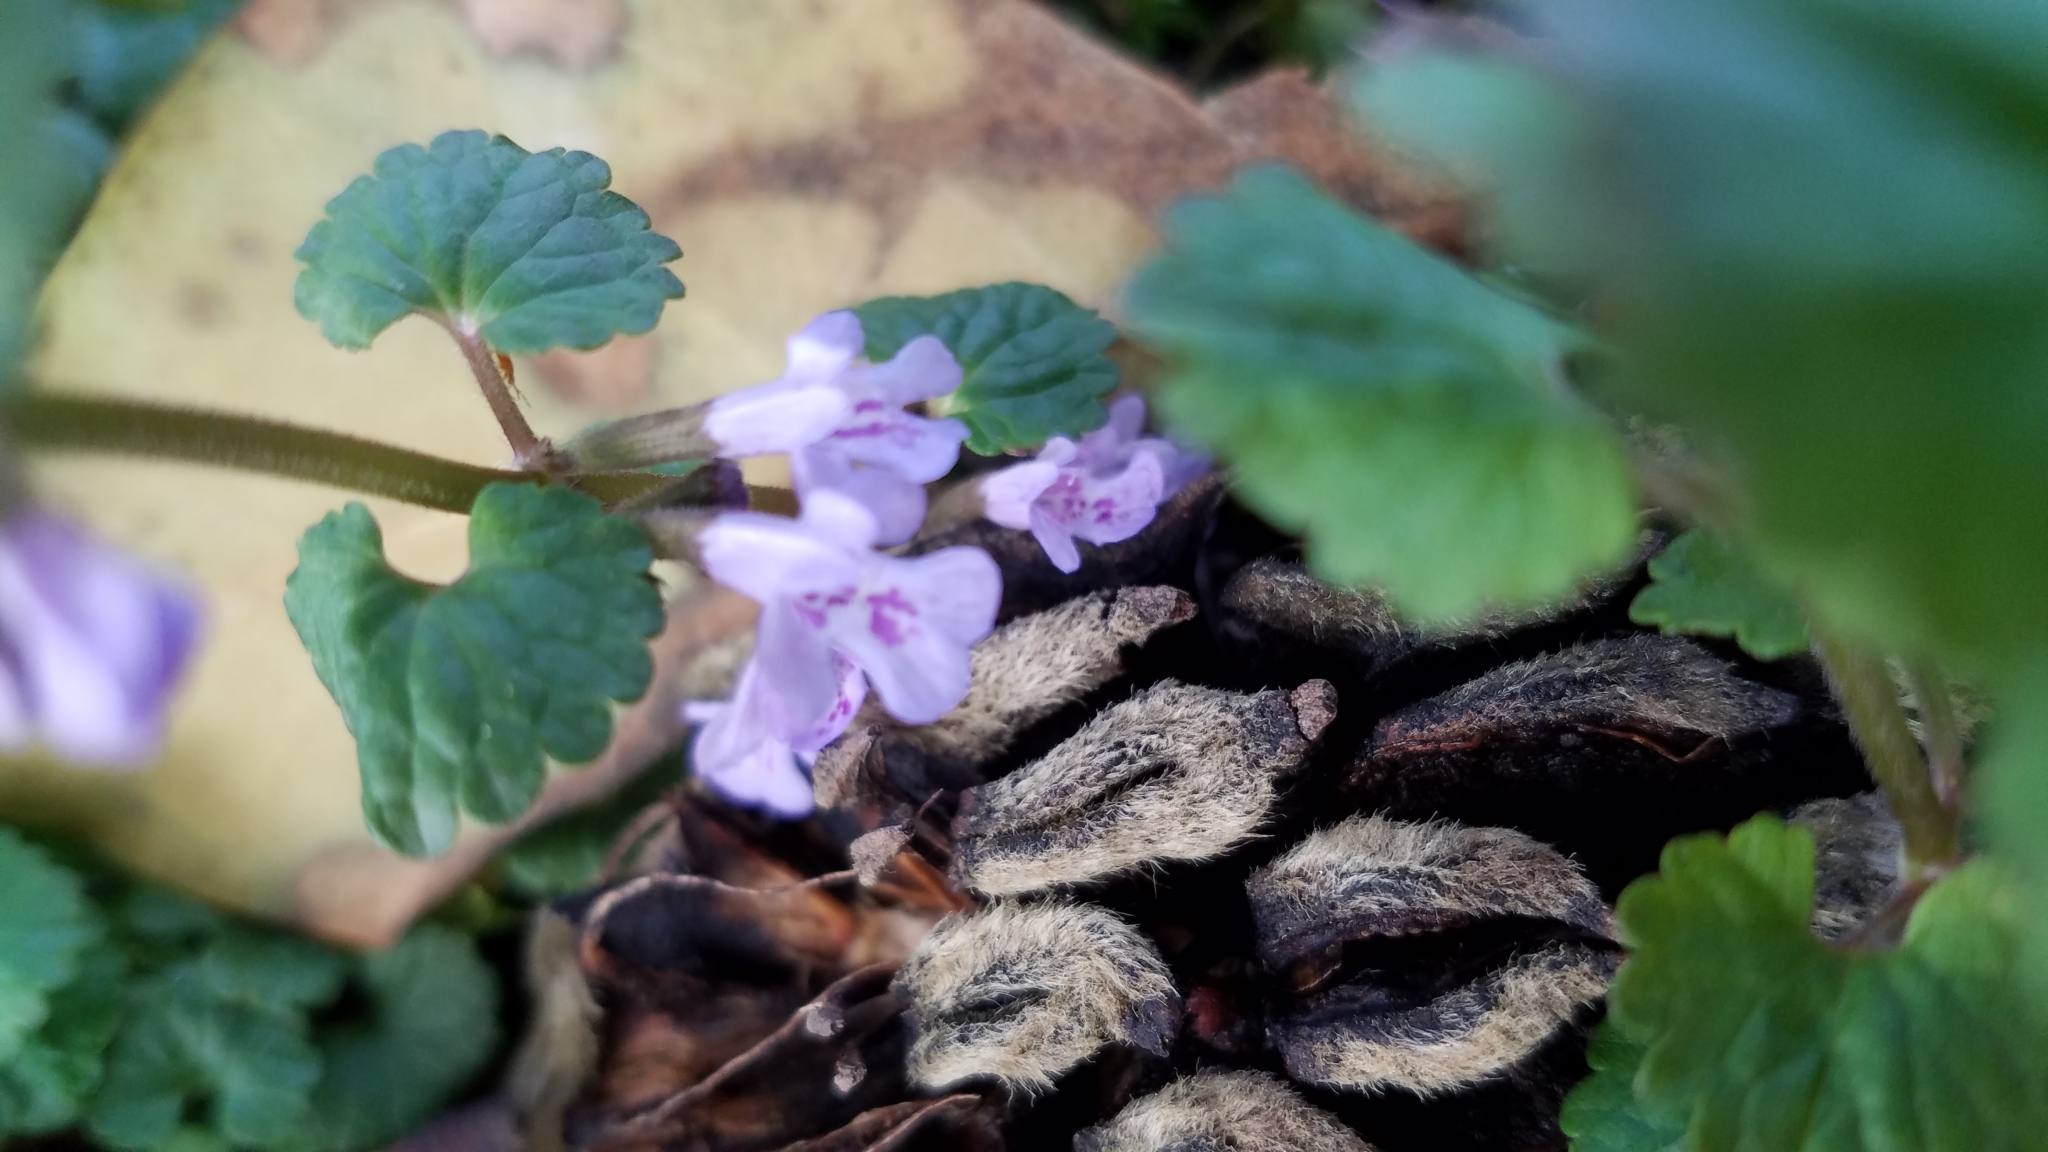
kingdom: Plantae
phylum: Tracheophyta
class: Magnoliopsida
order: Lamiales
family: Lamiaceae
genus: Glechoma
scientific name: Glechoma hederacea
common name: Ground ivy
